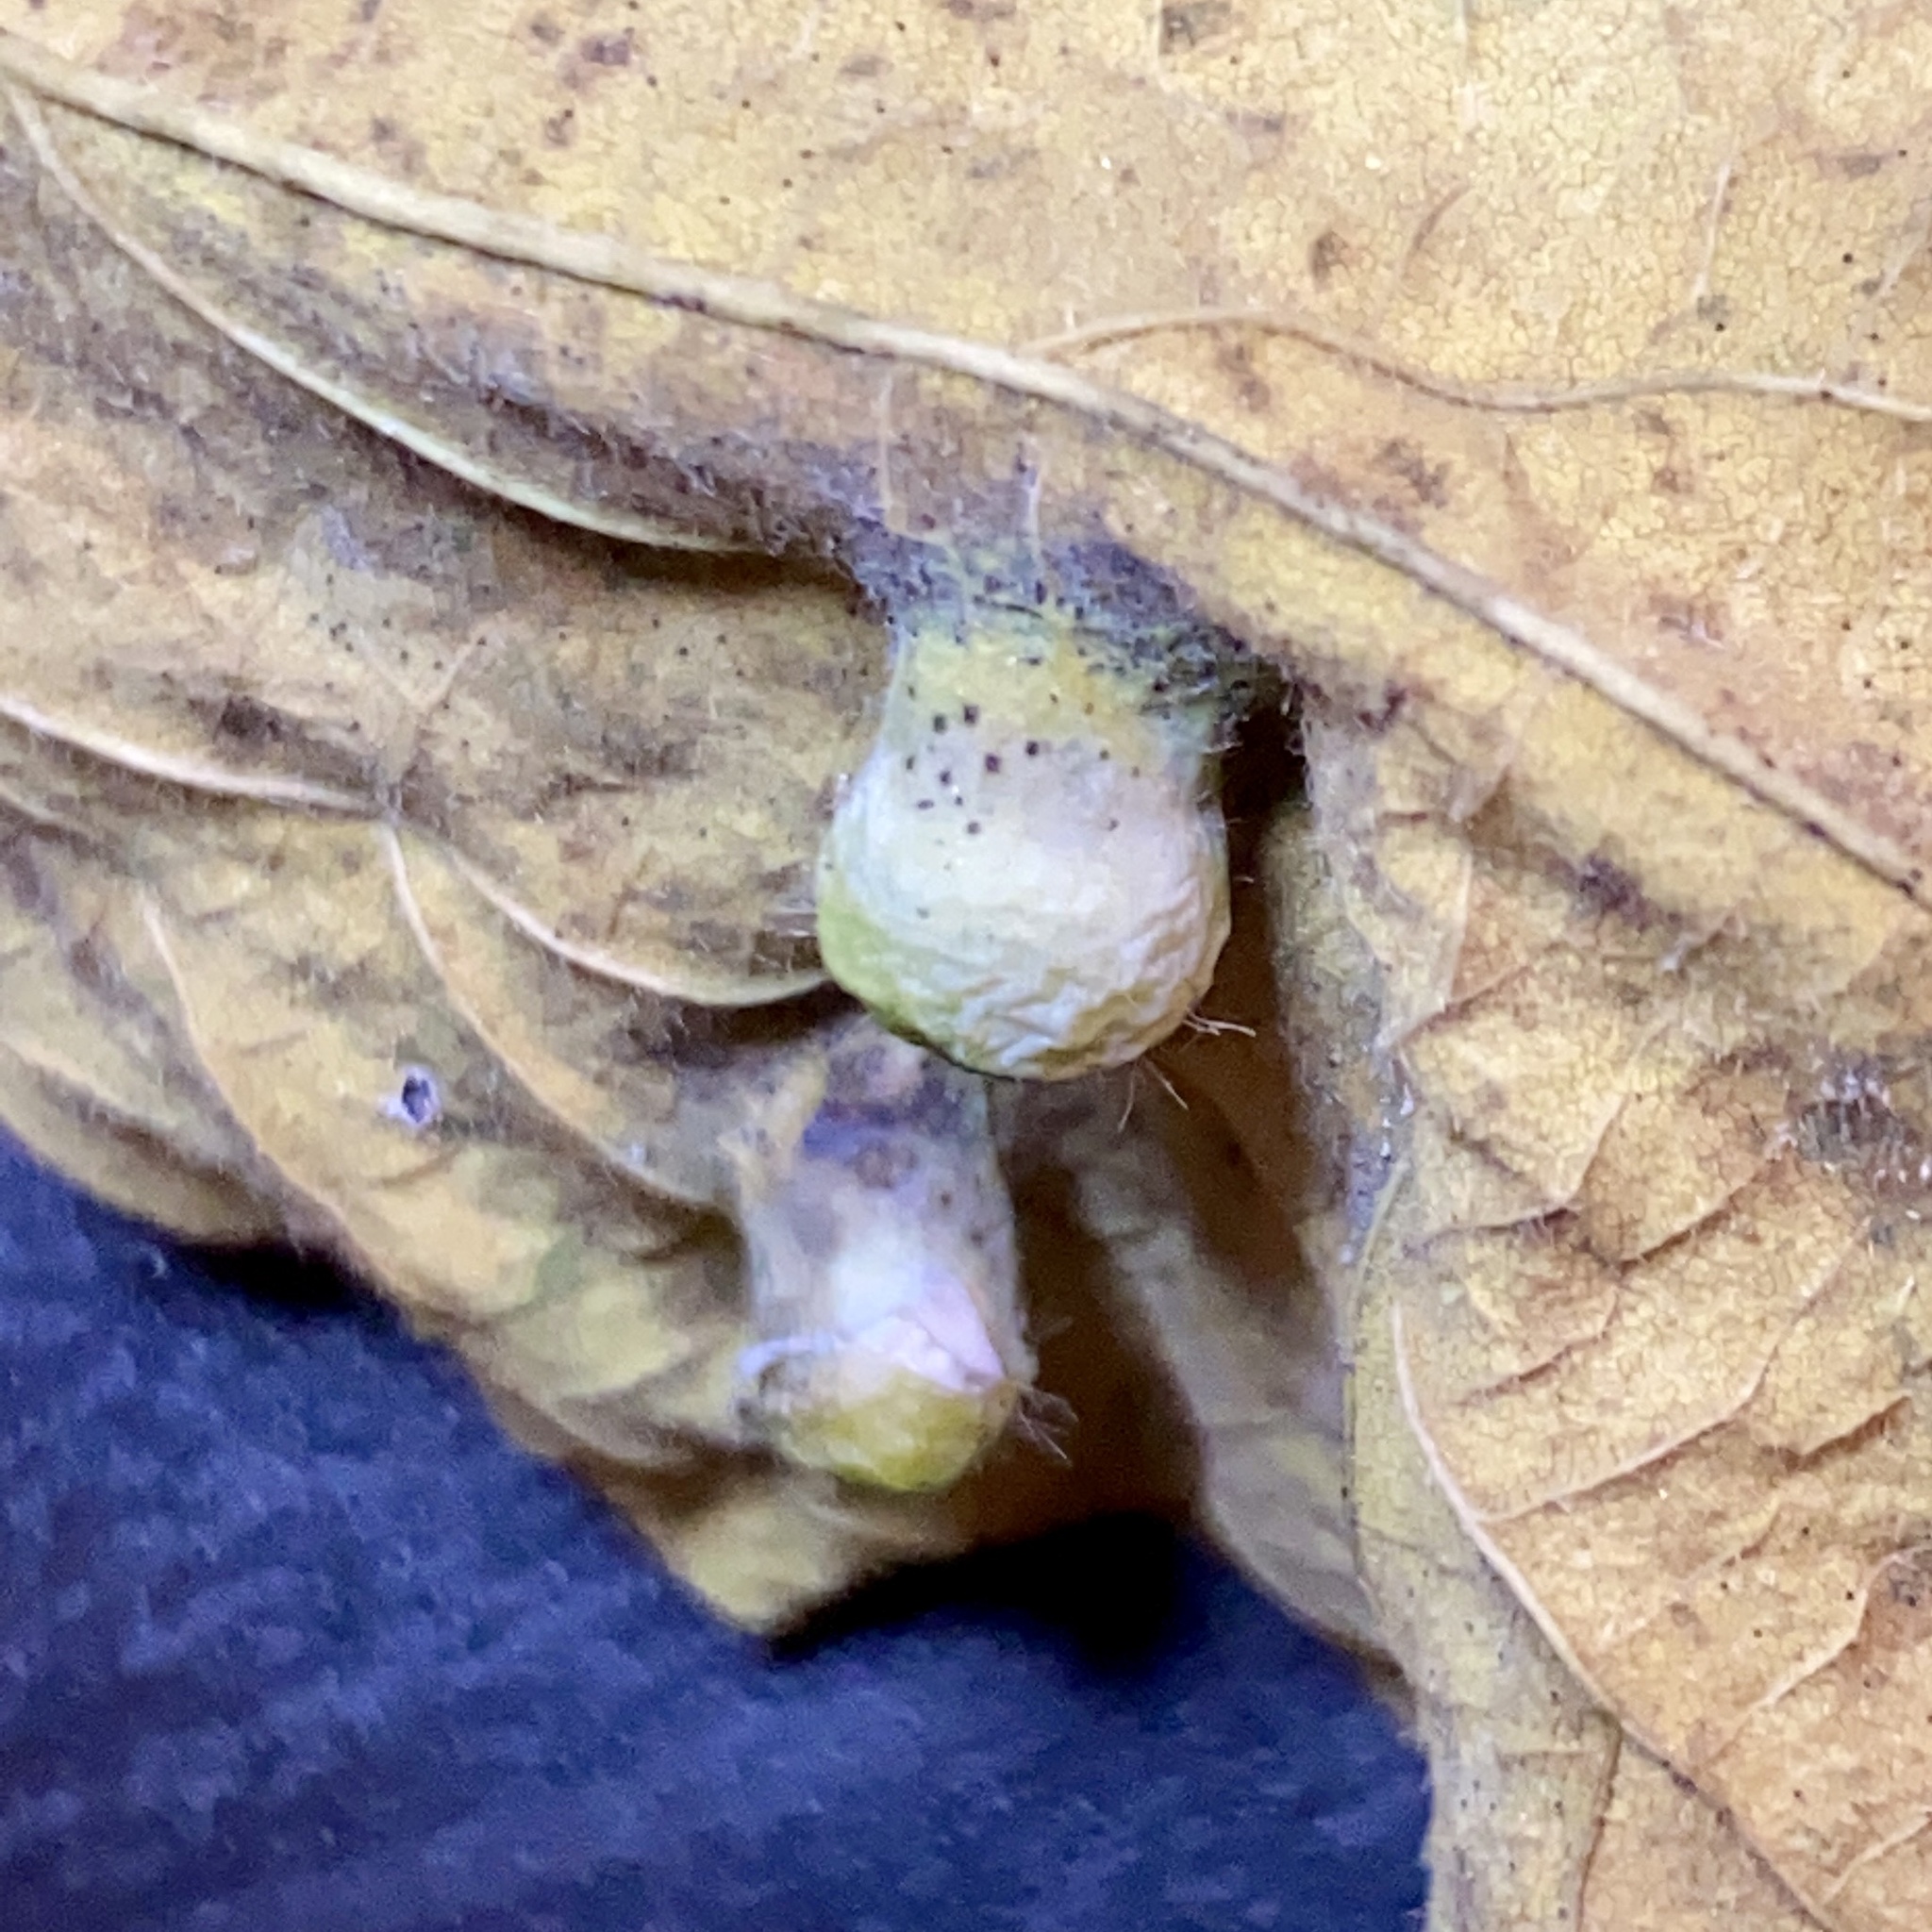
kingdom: Animalia
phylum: Arthropoda
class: Insecta
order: Hemiptera
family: Aphalaridae
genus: Pachypsylla
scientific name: Pachypsylla celtidismamma
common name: Hackberry nipplegall psyllid
